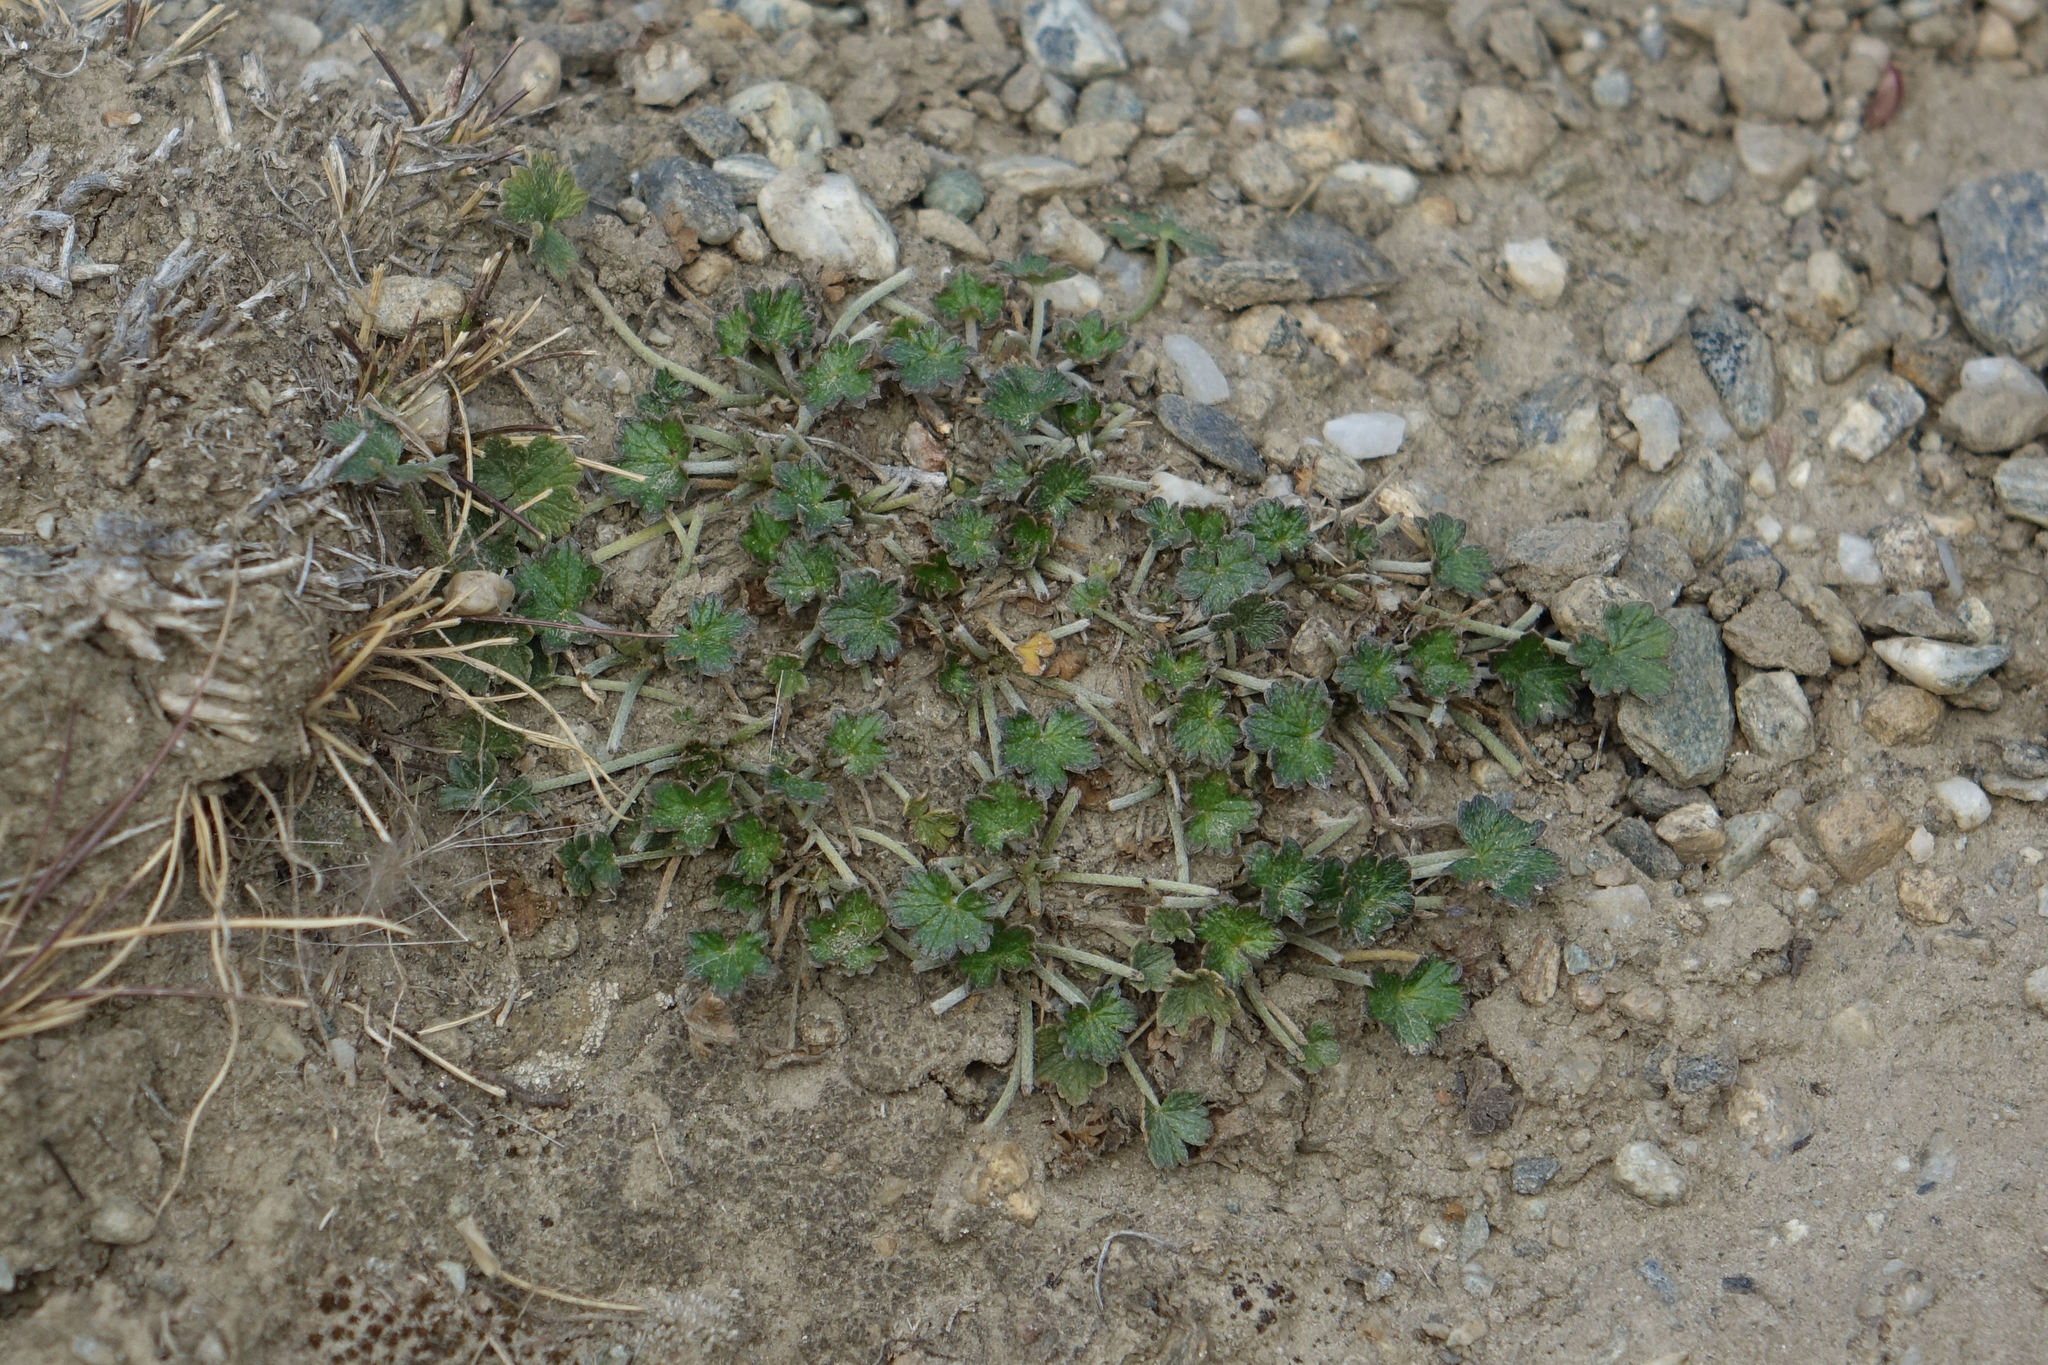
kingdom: Plantae
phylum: Tracheophyta
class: Magnoliopsida
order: Geraniales
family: Geraniaceae
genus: Geranium
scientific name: Geranium brevicaule
